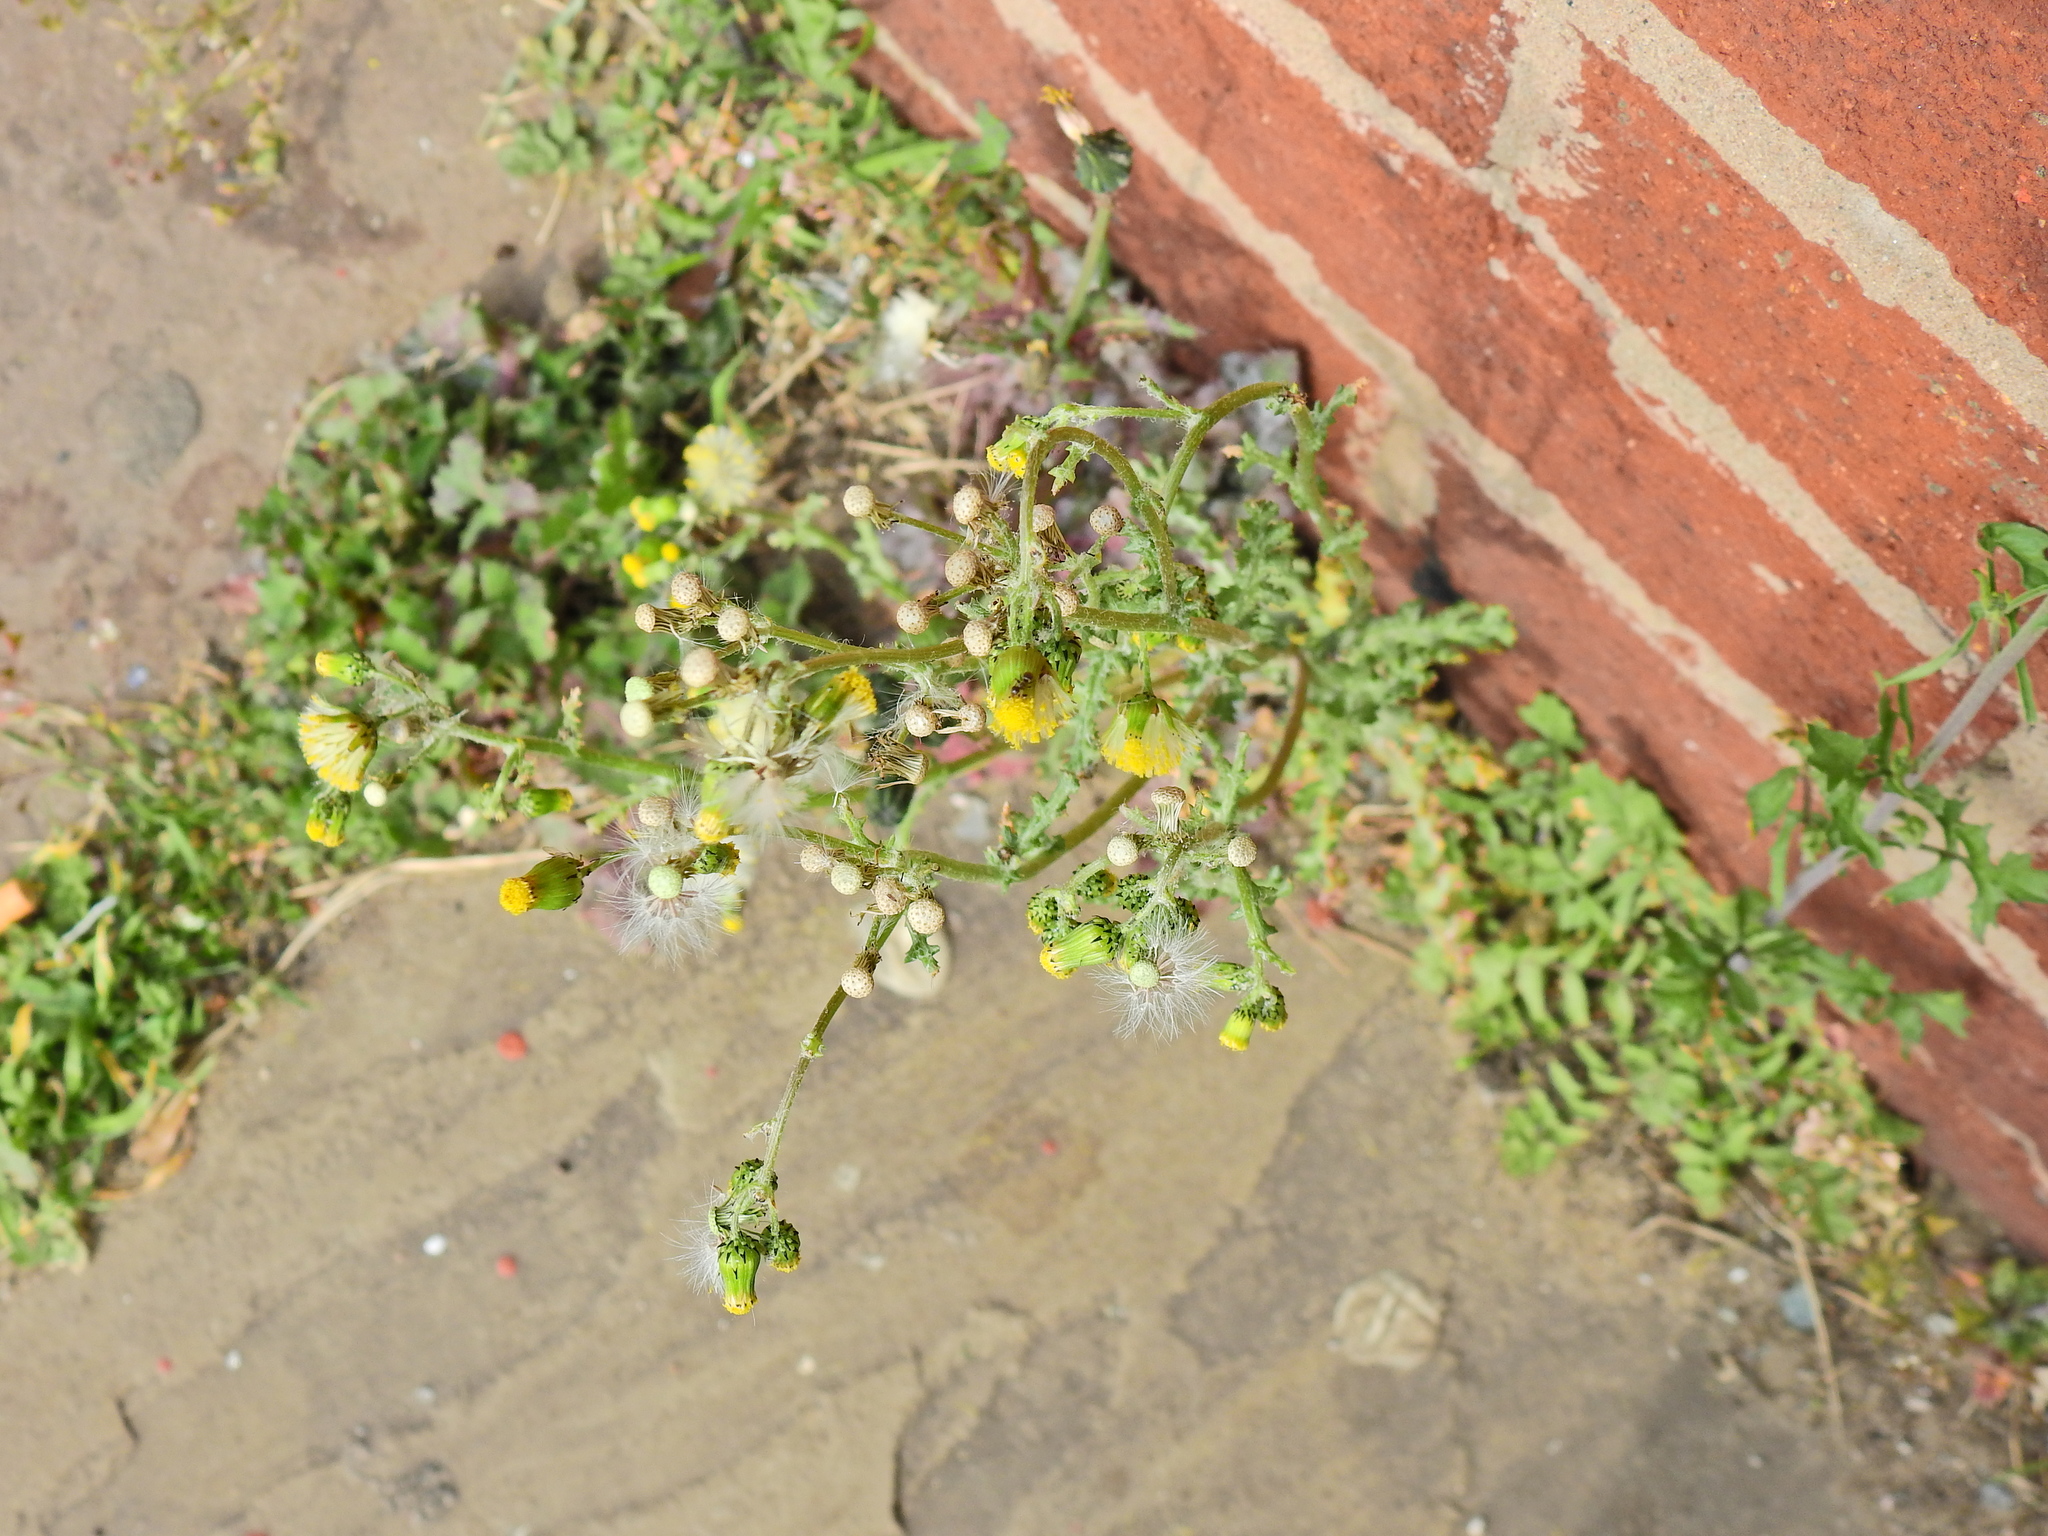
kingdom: Plantae
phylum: Tracheophyta
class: Magnoliopsida
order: Asterales
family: Asteraceae
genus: Senecio
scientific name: Senecio vulgaris
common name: Old-man-in-the-spring
